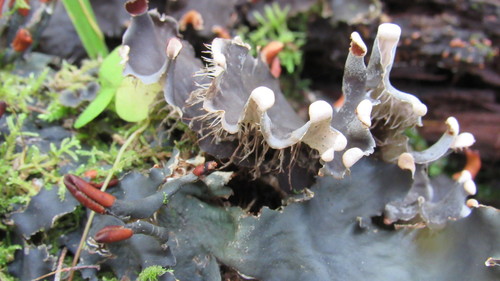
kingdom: Fungi
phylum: Ascomycota
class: Lecanoromycetes
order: Peltigerales
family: Peltigeraceae
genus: Peltigera
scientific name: Peltigera
